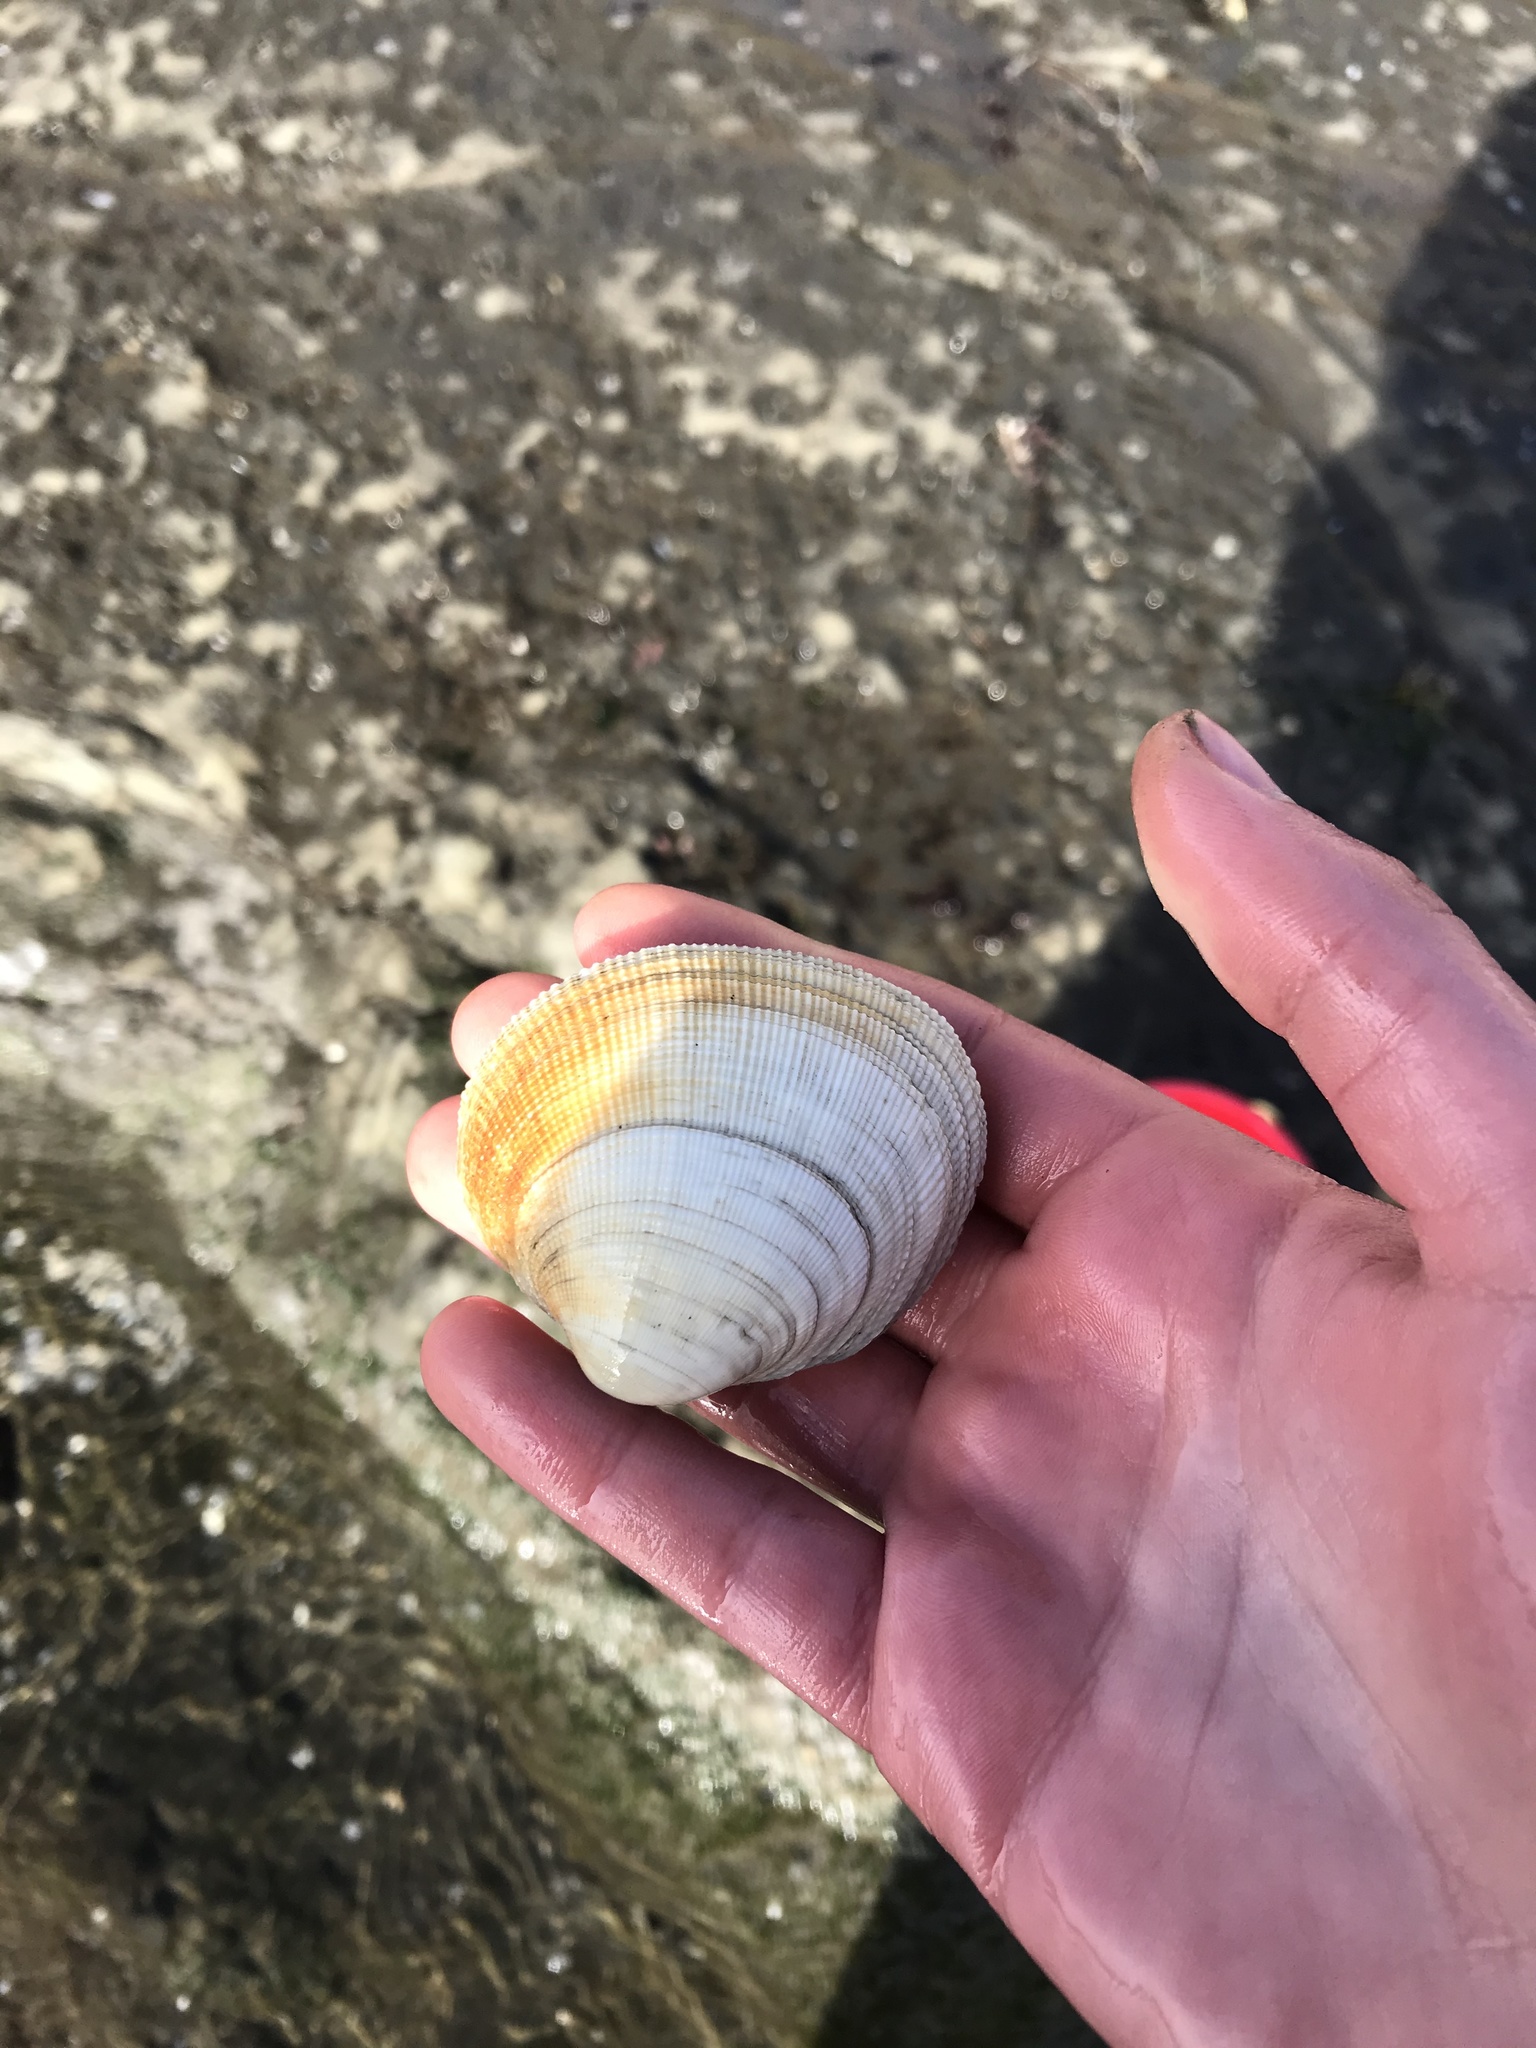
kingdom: Animalia
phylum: Mollusca
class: Bivalvia
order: Venerida
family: Veneridae
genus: Leukoma
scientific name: Leukoma staminea
